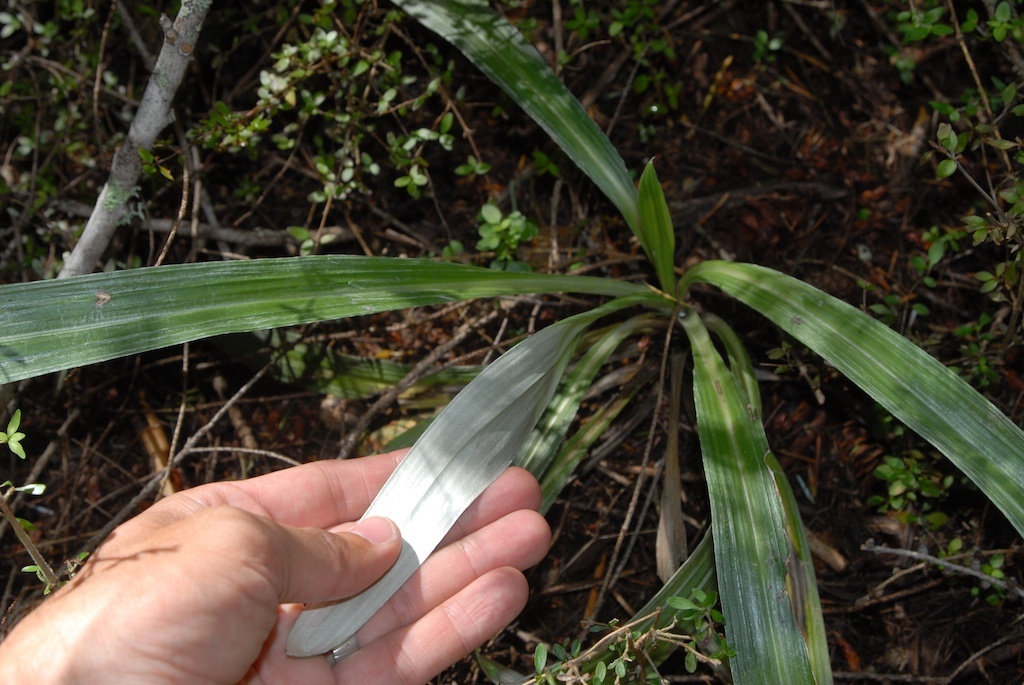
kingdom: Plantae
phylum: Tracheophyta
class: Magnoliopsida
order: Asterales
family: Asteraceae
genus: Celmisia
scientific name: Celmisia monroi
